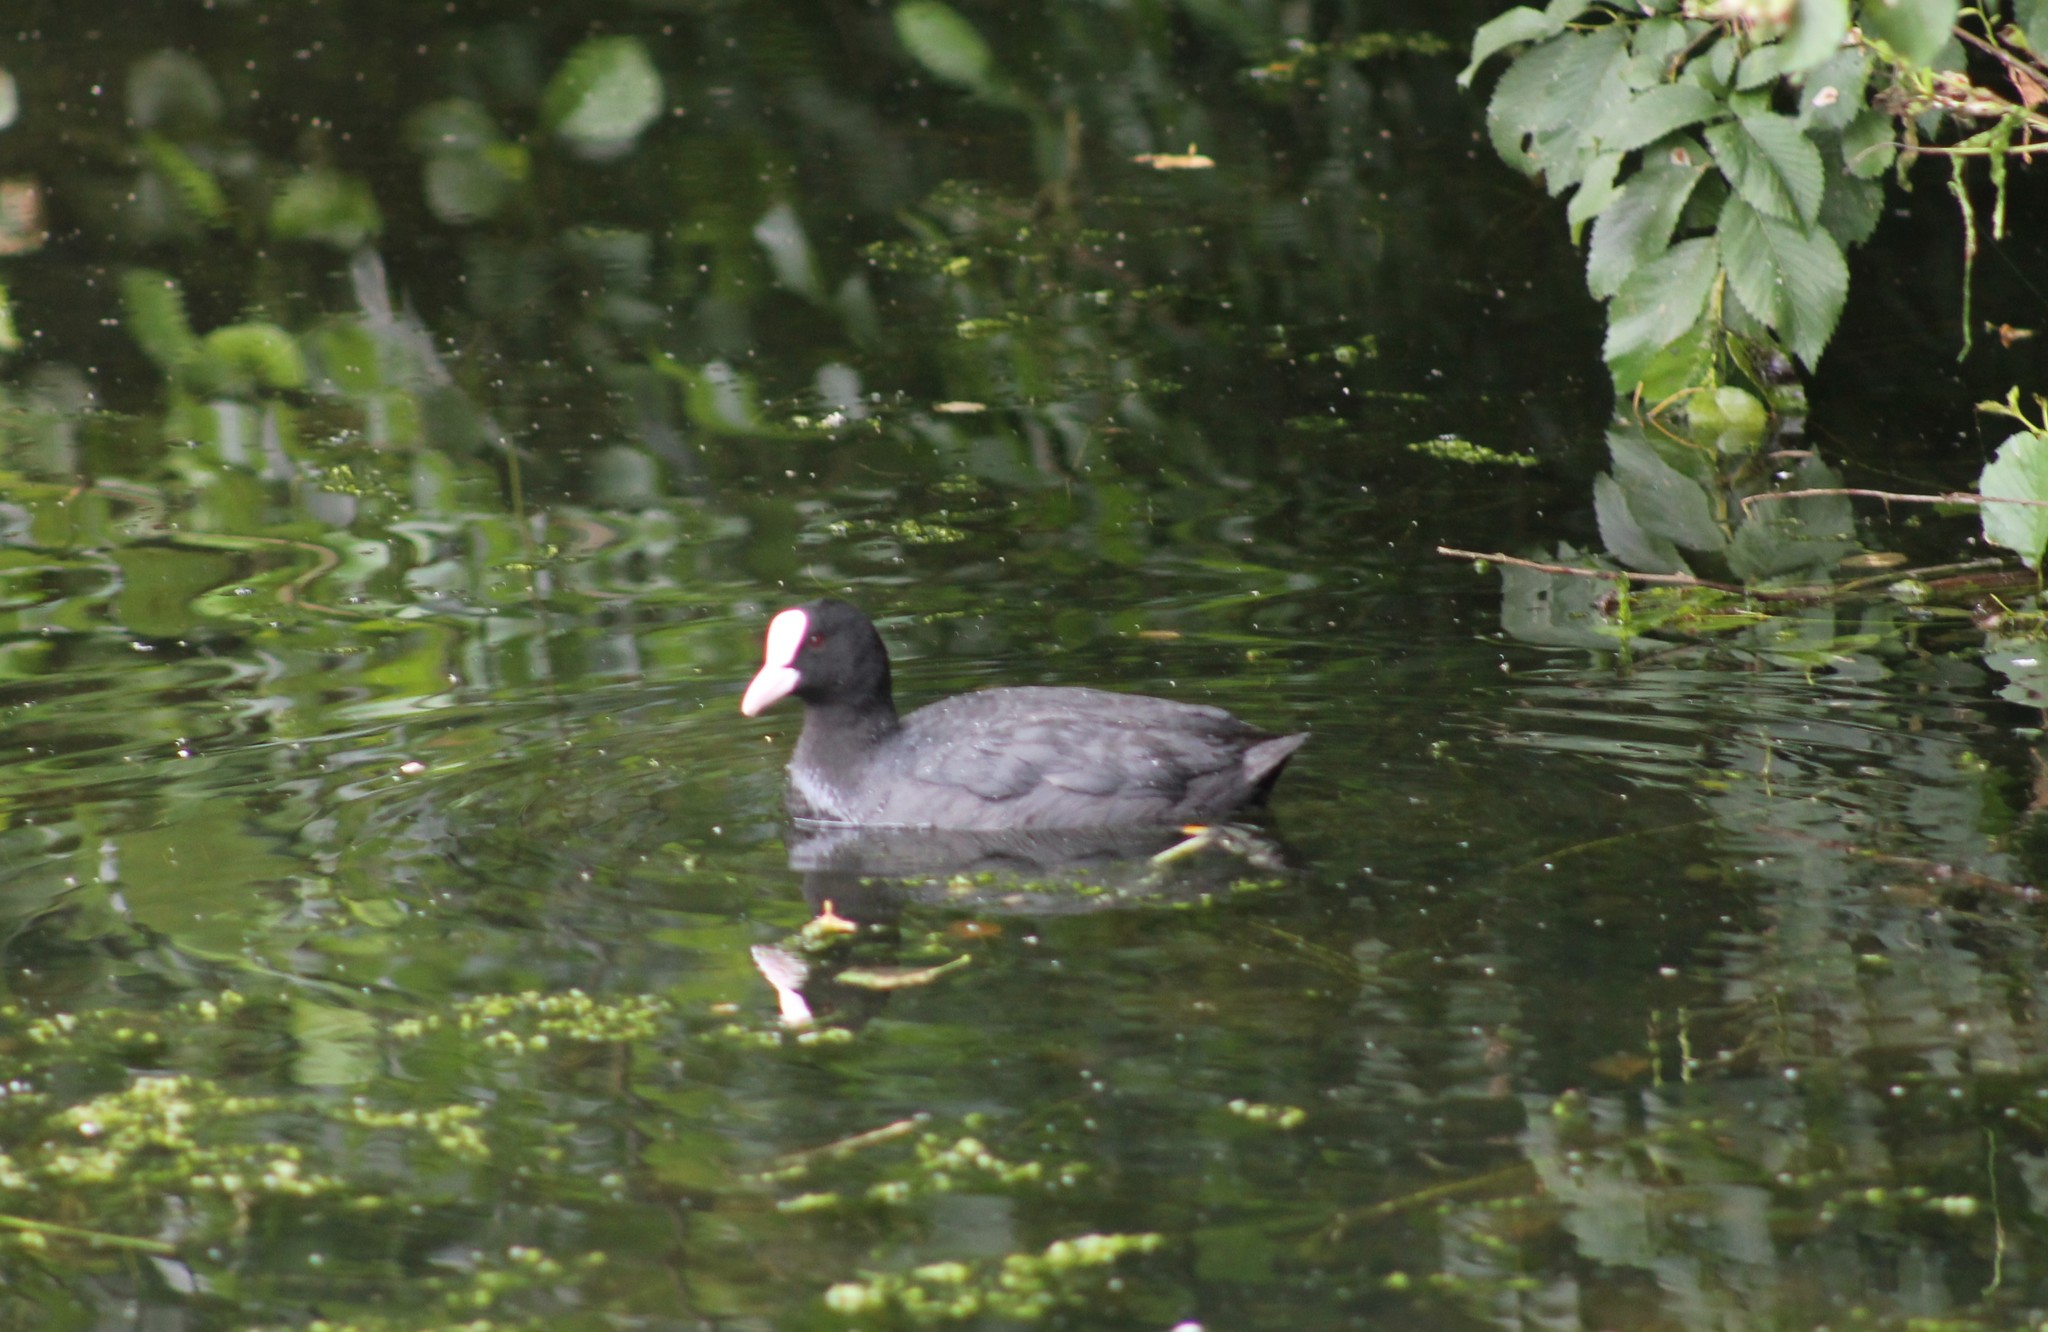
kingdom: Animalia
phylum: Chordata
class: Aves
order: Gruiformes
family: Rallidae
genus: Fulica
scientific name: Fulica atra
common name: Eurasian coot
